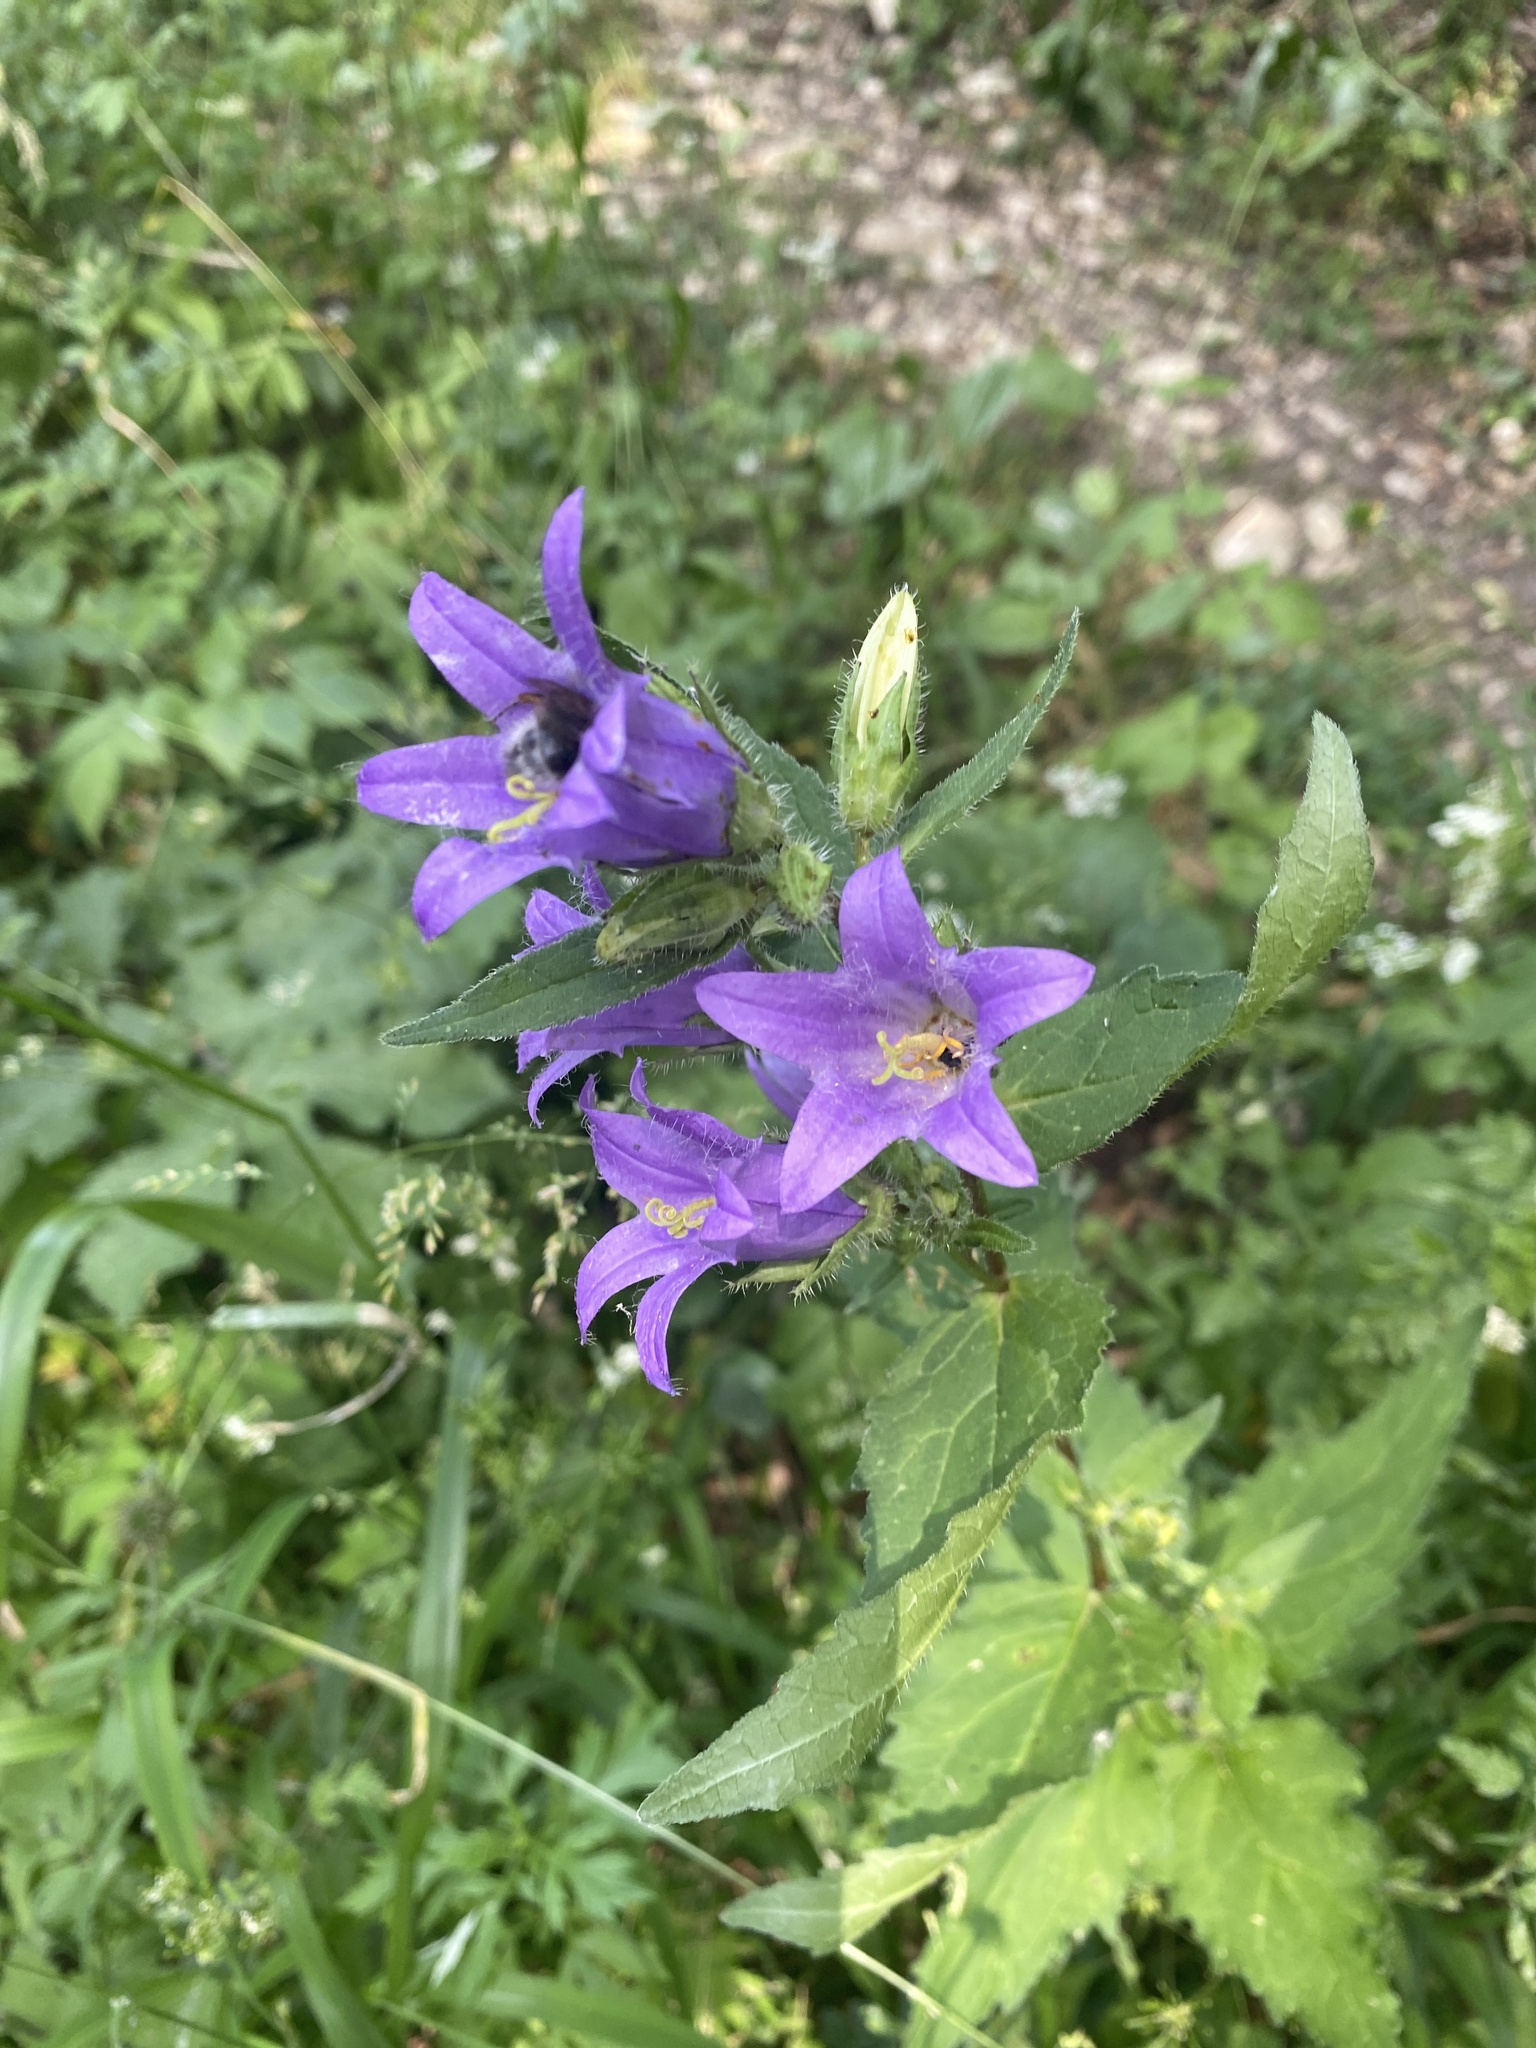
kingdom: Plantae
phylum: Tracheophyta
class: Magnoliopsida
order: Asterales
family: Campanulaceae
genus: Campanula
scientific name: Campanula trachelium
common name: Nettle-leaved bellflower
